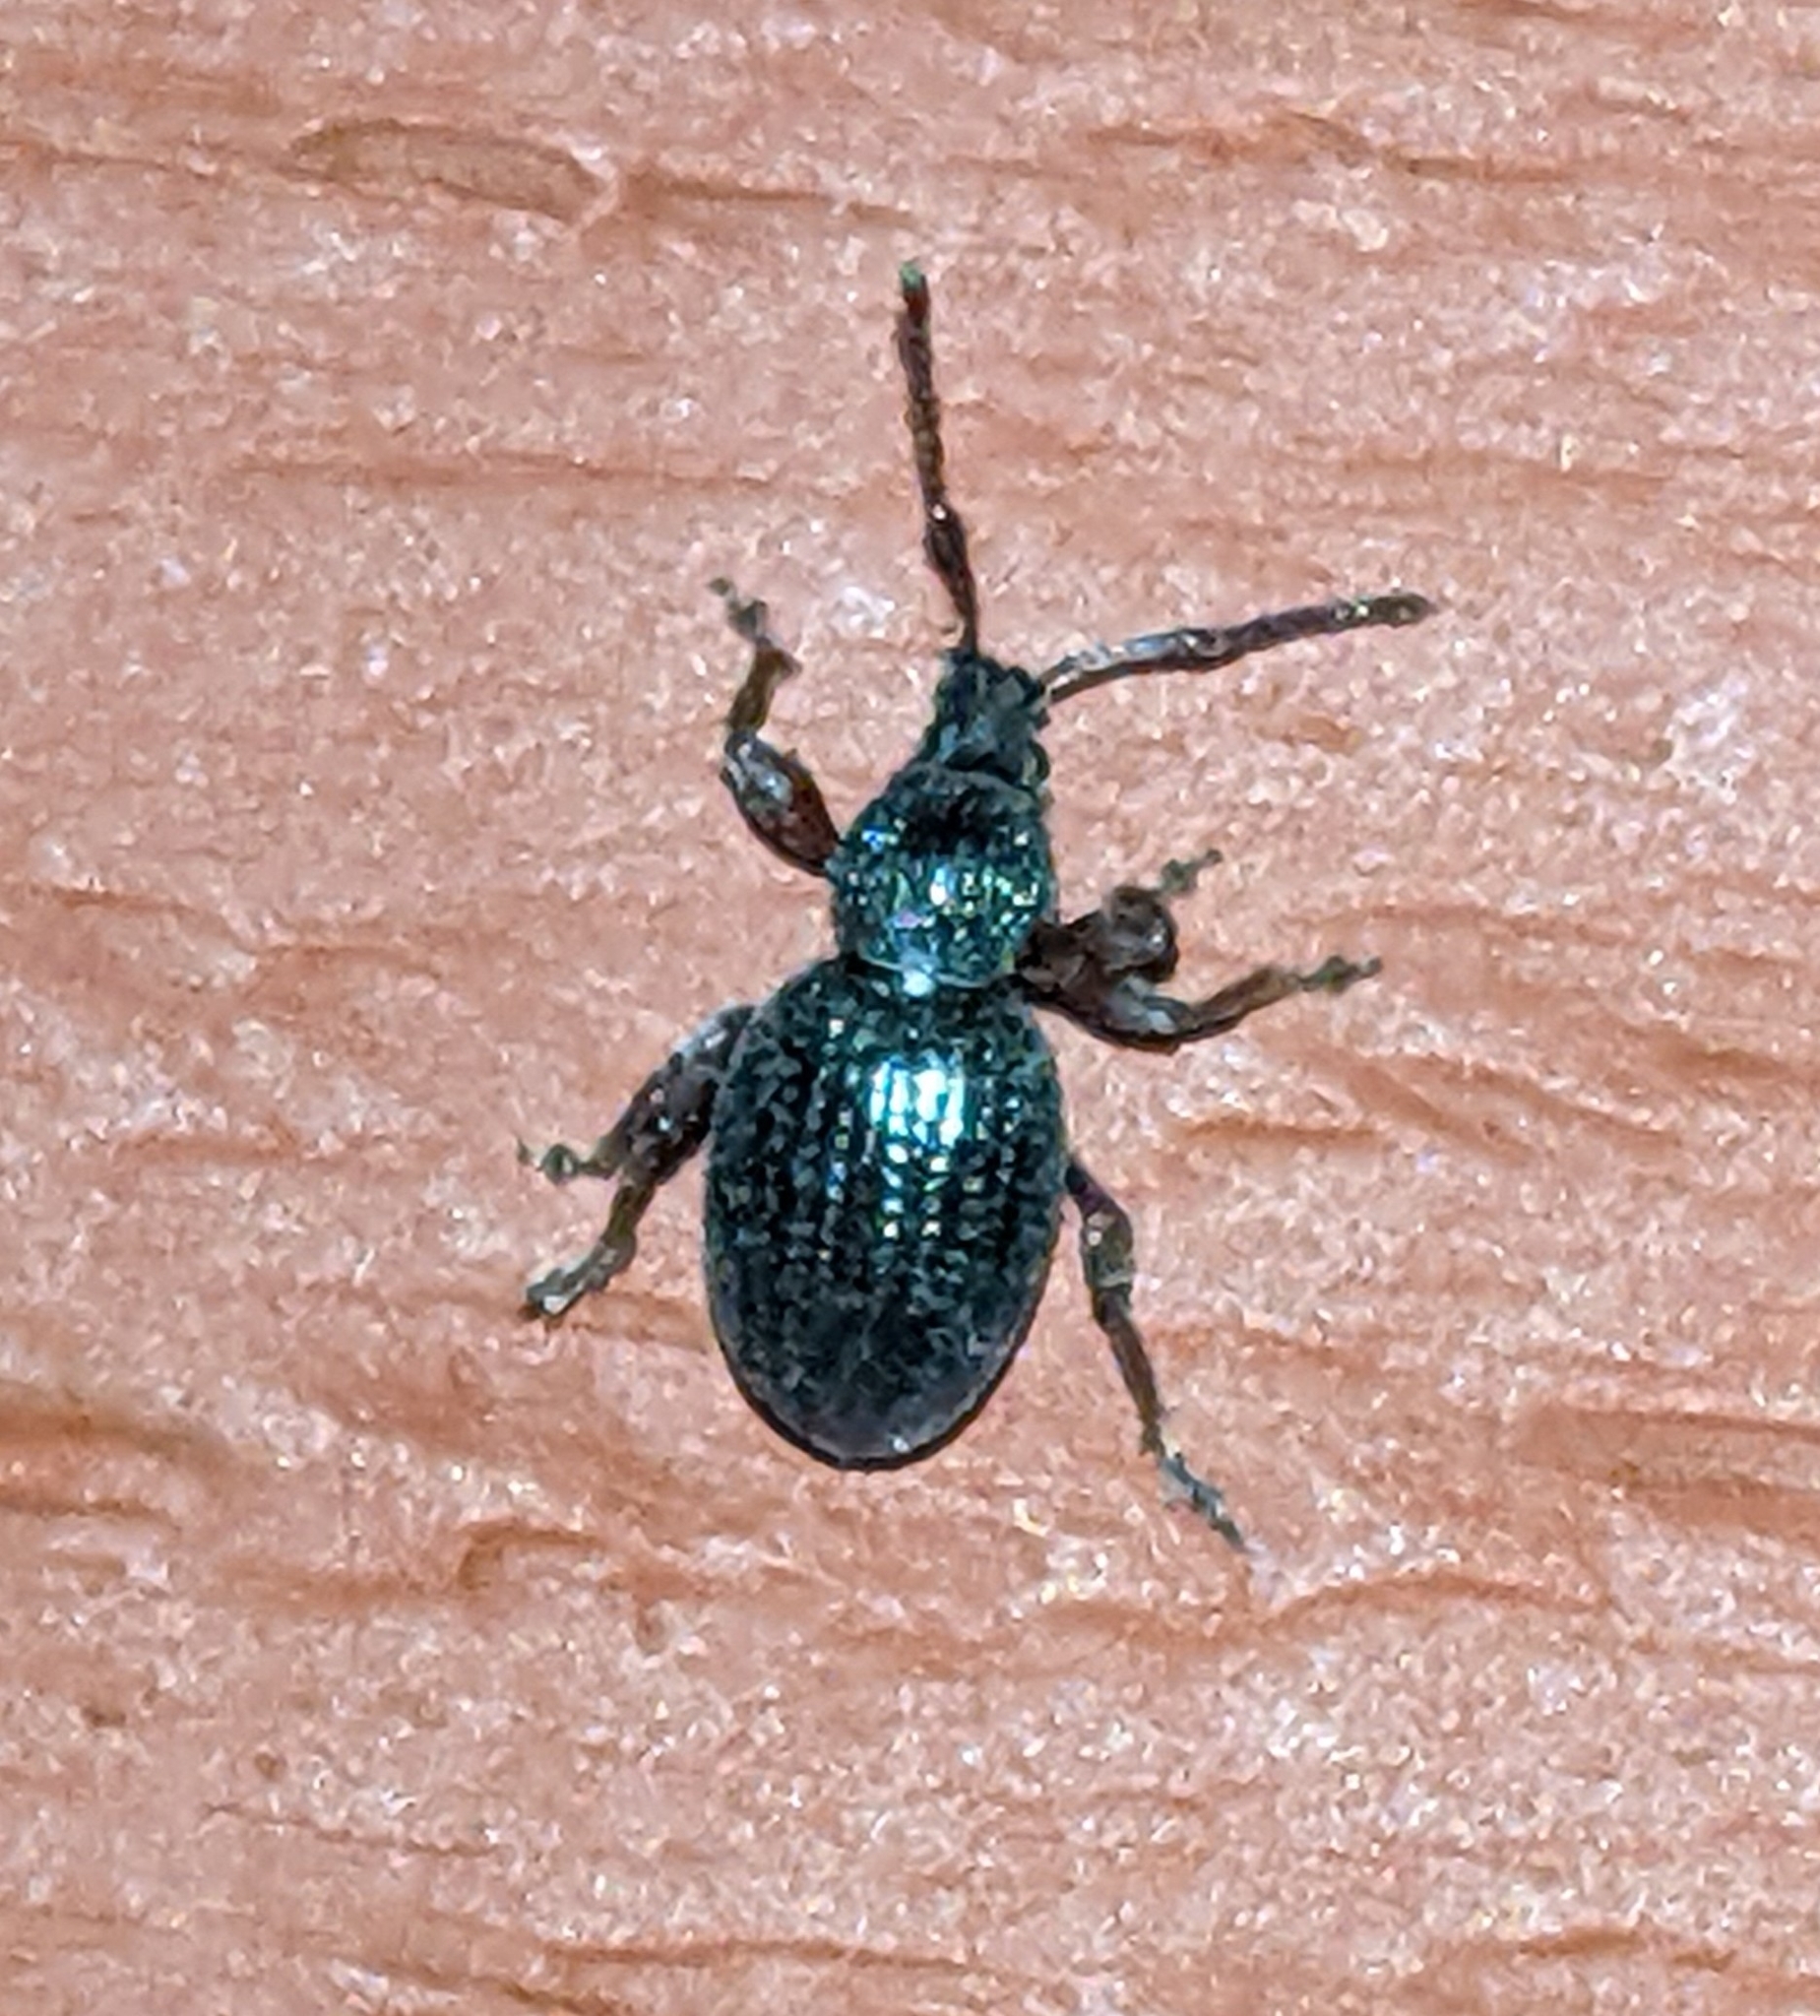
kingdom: Animalia
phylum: Arthropoda
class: Insecta
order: Coleoptera
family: Curculionidae
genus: Otiorhynchus
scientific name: Otiorhynchus ovatus
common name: Strawberry root weevil
